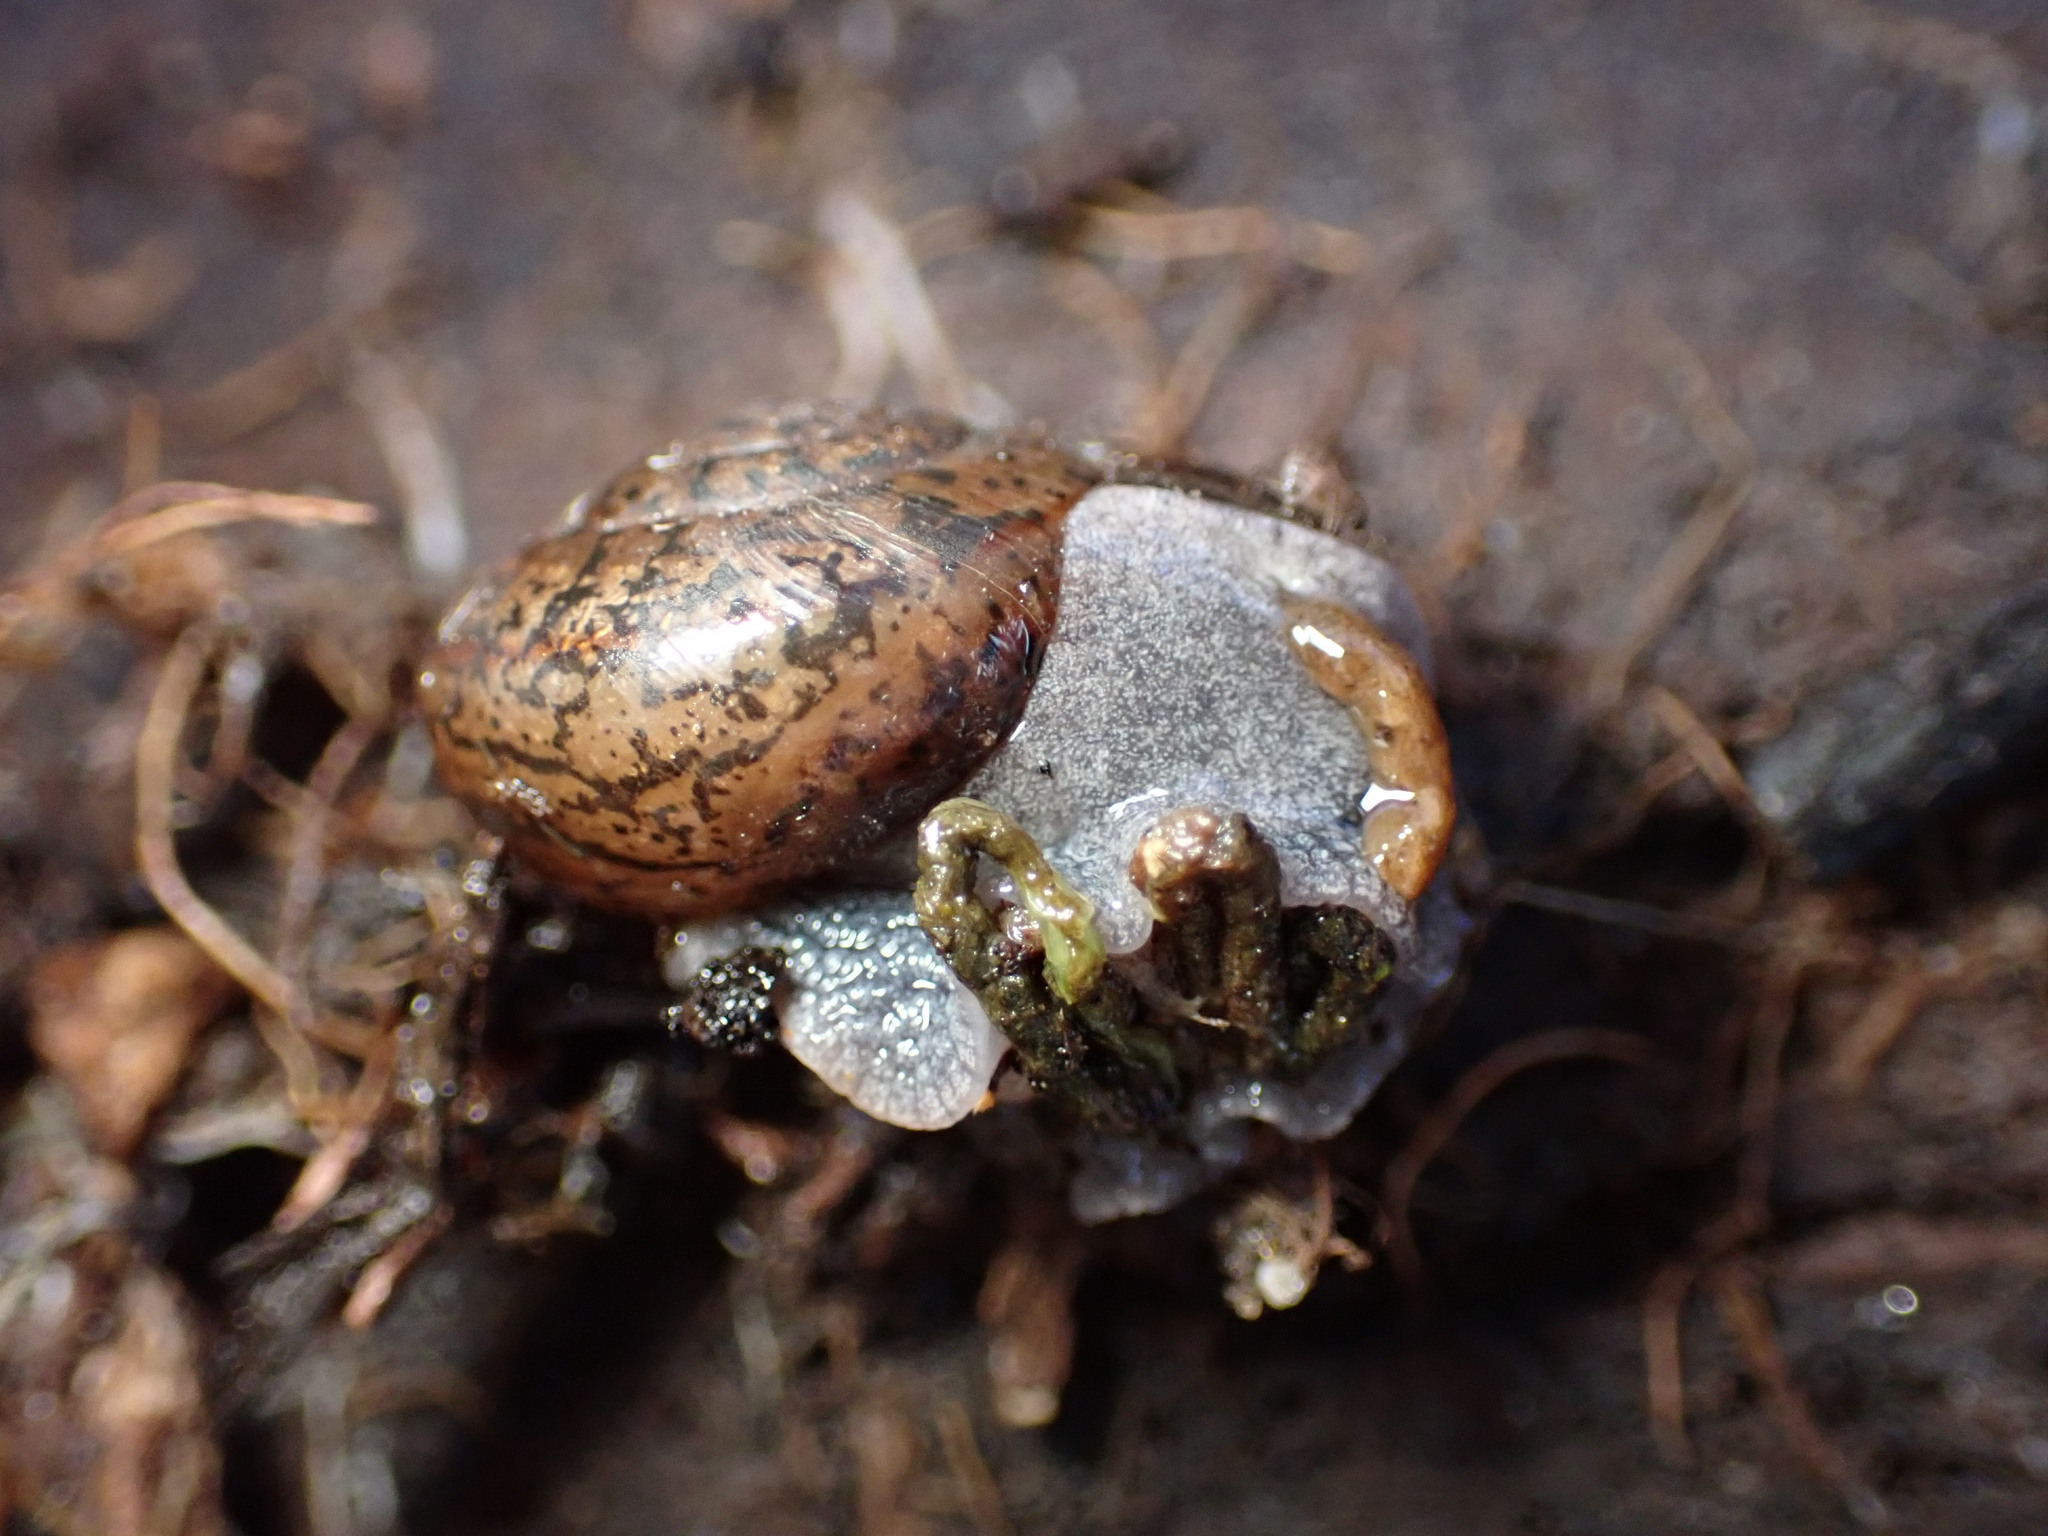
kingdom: Animalia
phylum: Mollusca
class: Gastropoda
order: Stylommatophora
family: Xanthonychidae
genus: Helminthoglypta
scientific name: Helminthoglypta cypreophila
